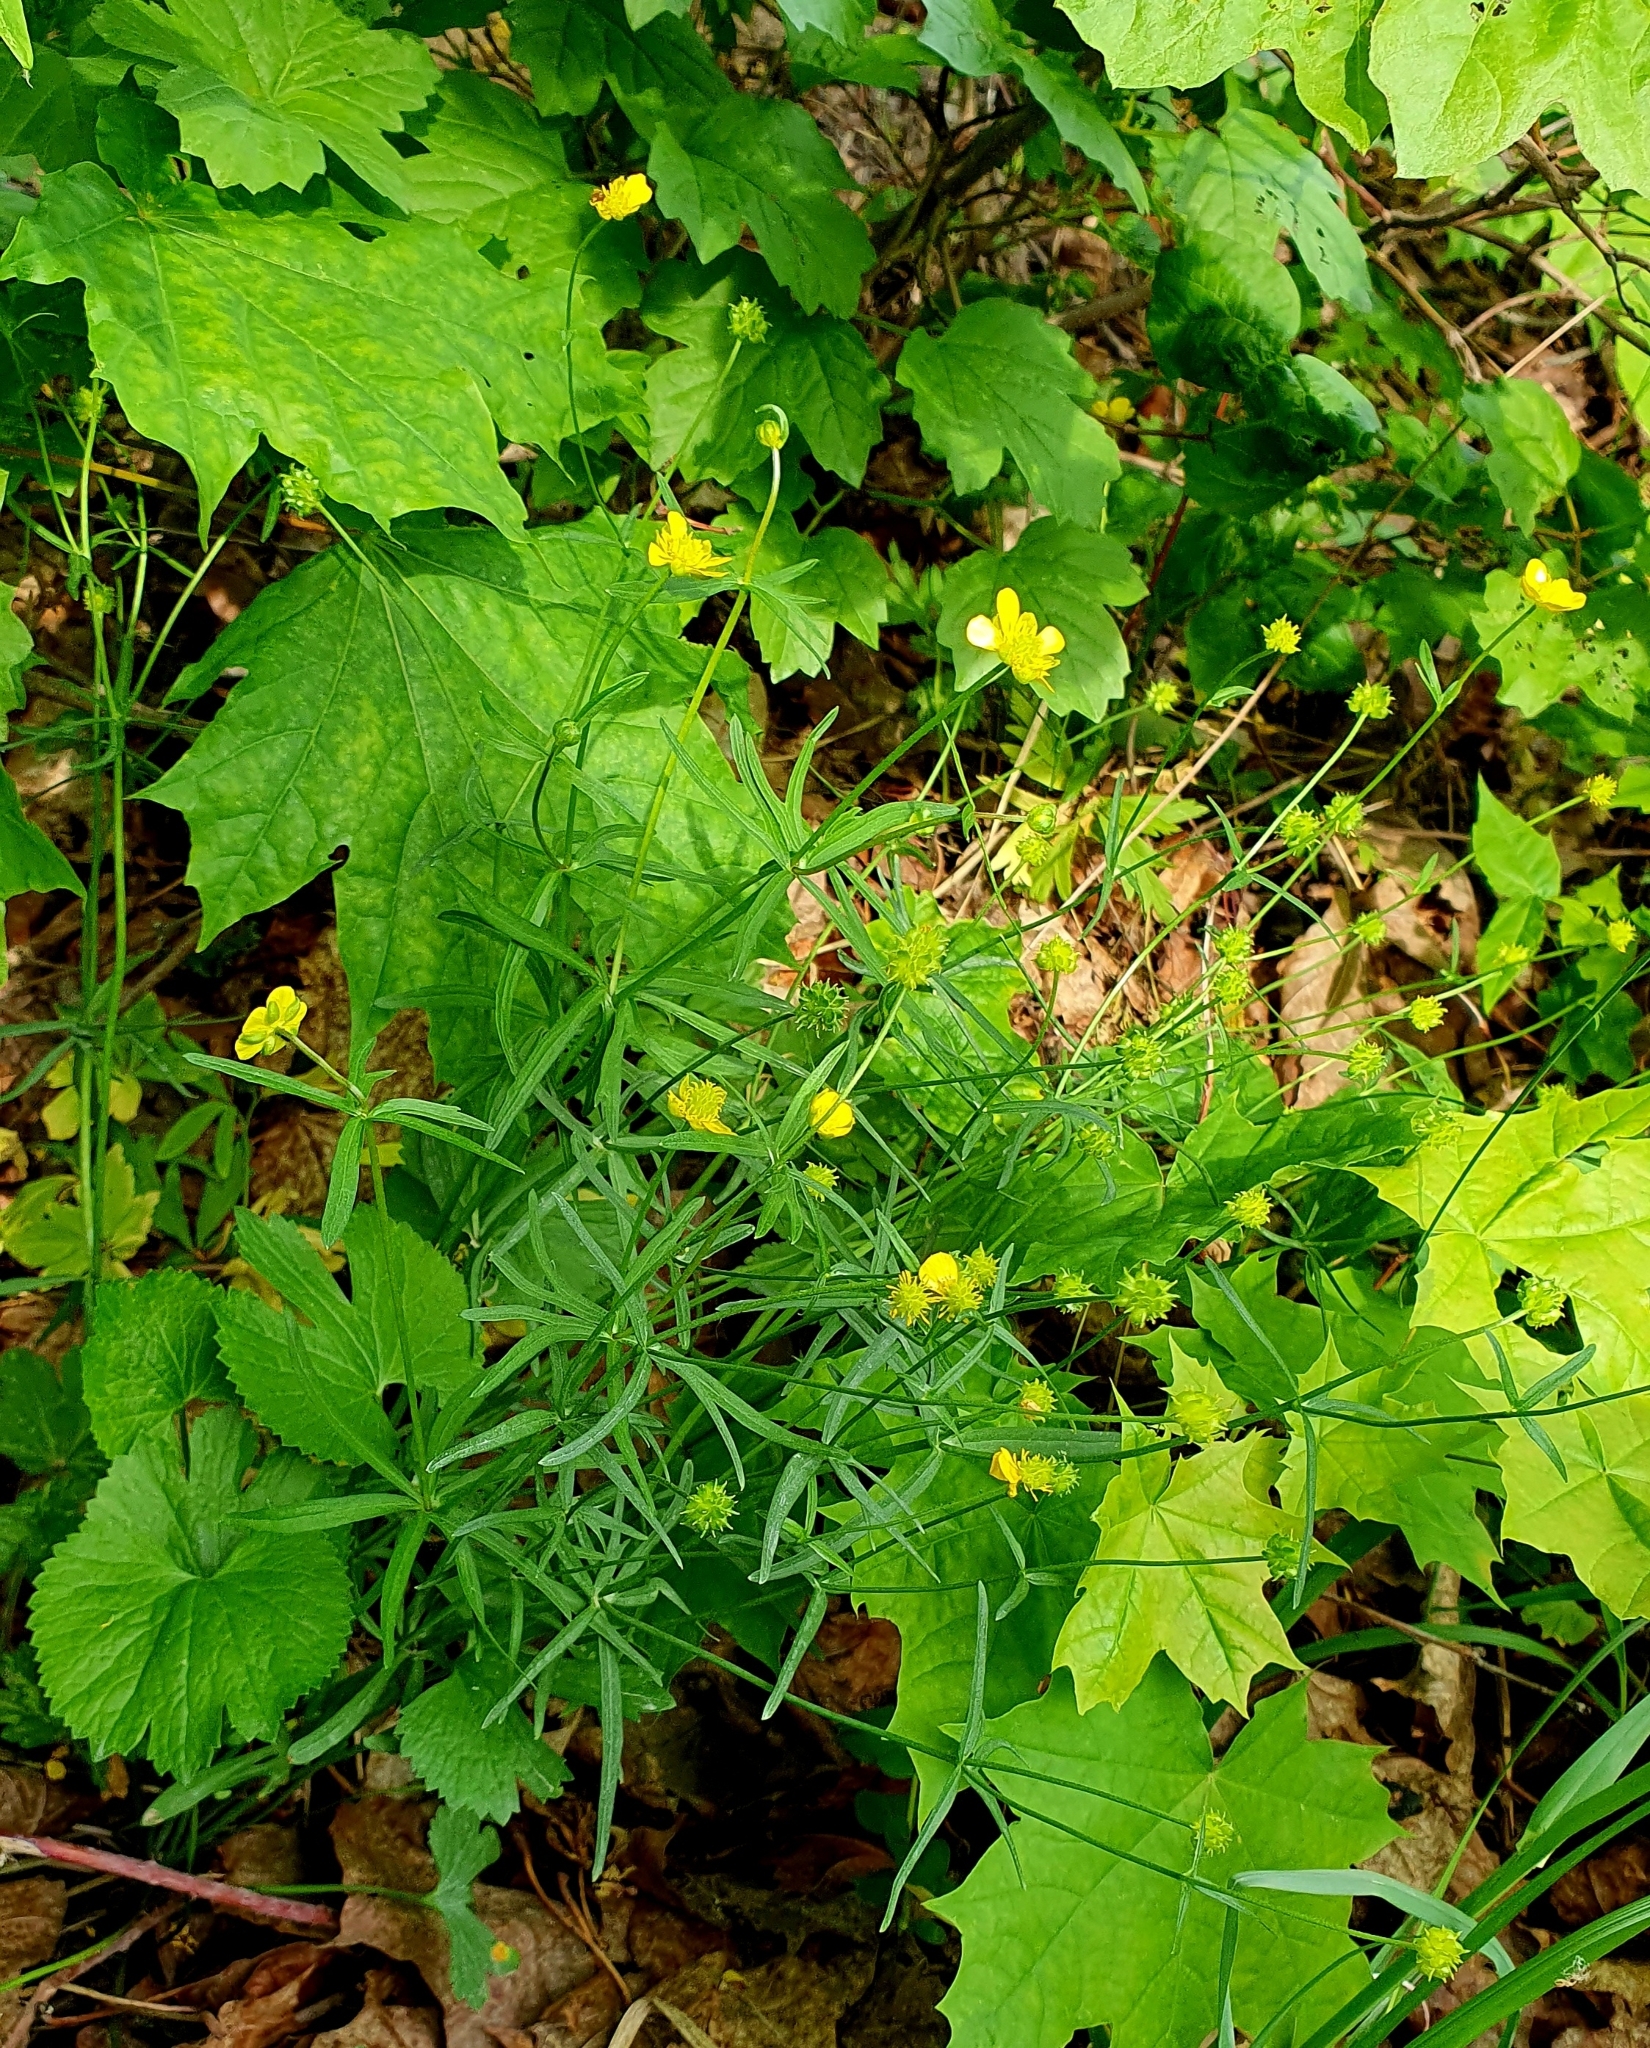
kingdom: Plantae
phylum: Tracheophyta
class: Magnoliopsida
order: Ranunculales
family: Ranunculaceae
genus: Ranunculus
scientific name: Ranunculus auricomus
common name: Goldilocks buttercup
